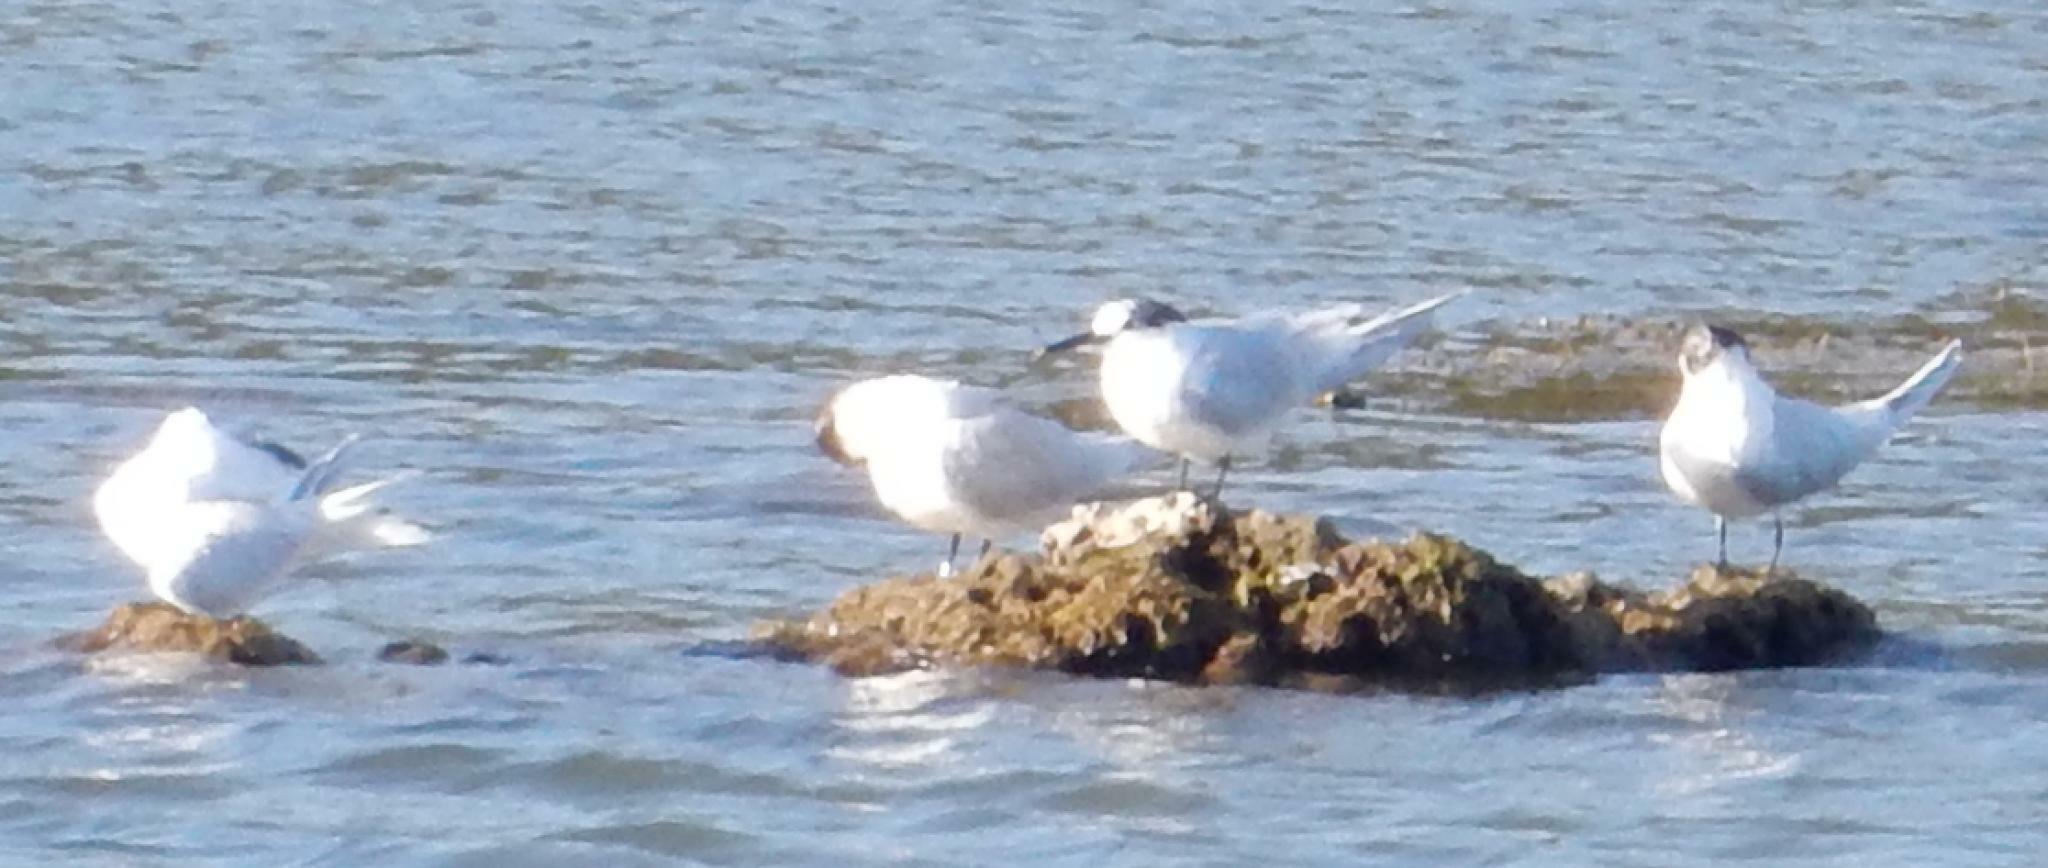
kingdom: Animalia
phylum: Chordata
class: Aves
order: Charadriiformes
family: Laridae
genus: Thalasseus
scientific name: Thalasseus sandvicensis
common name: Sandwich tern
